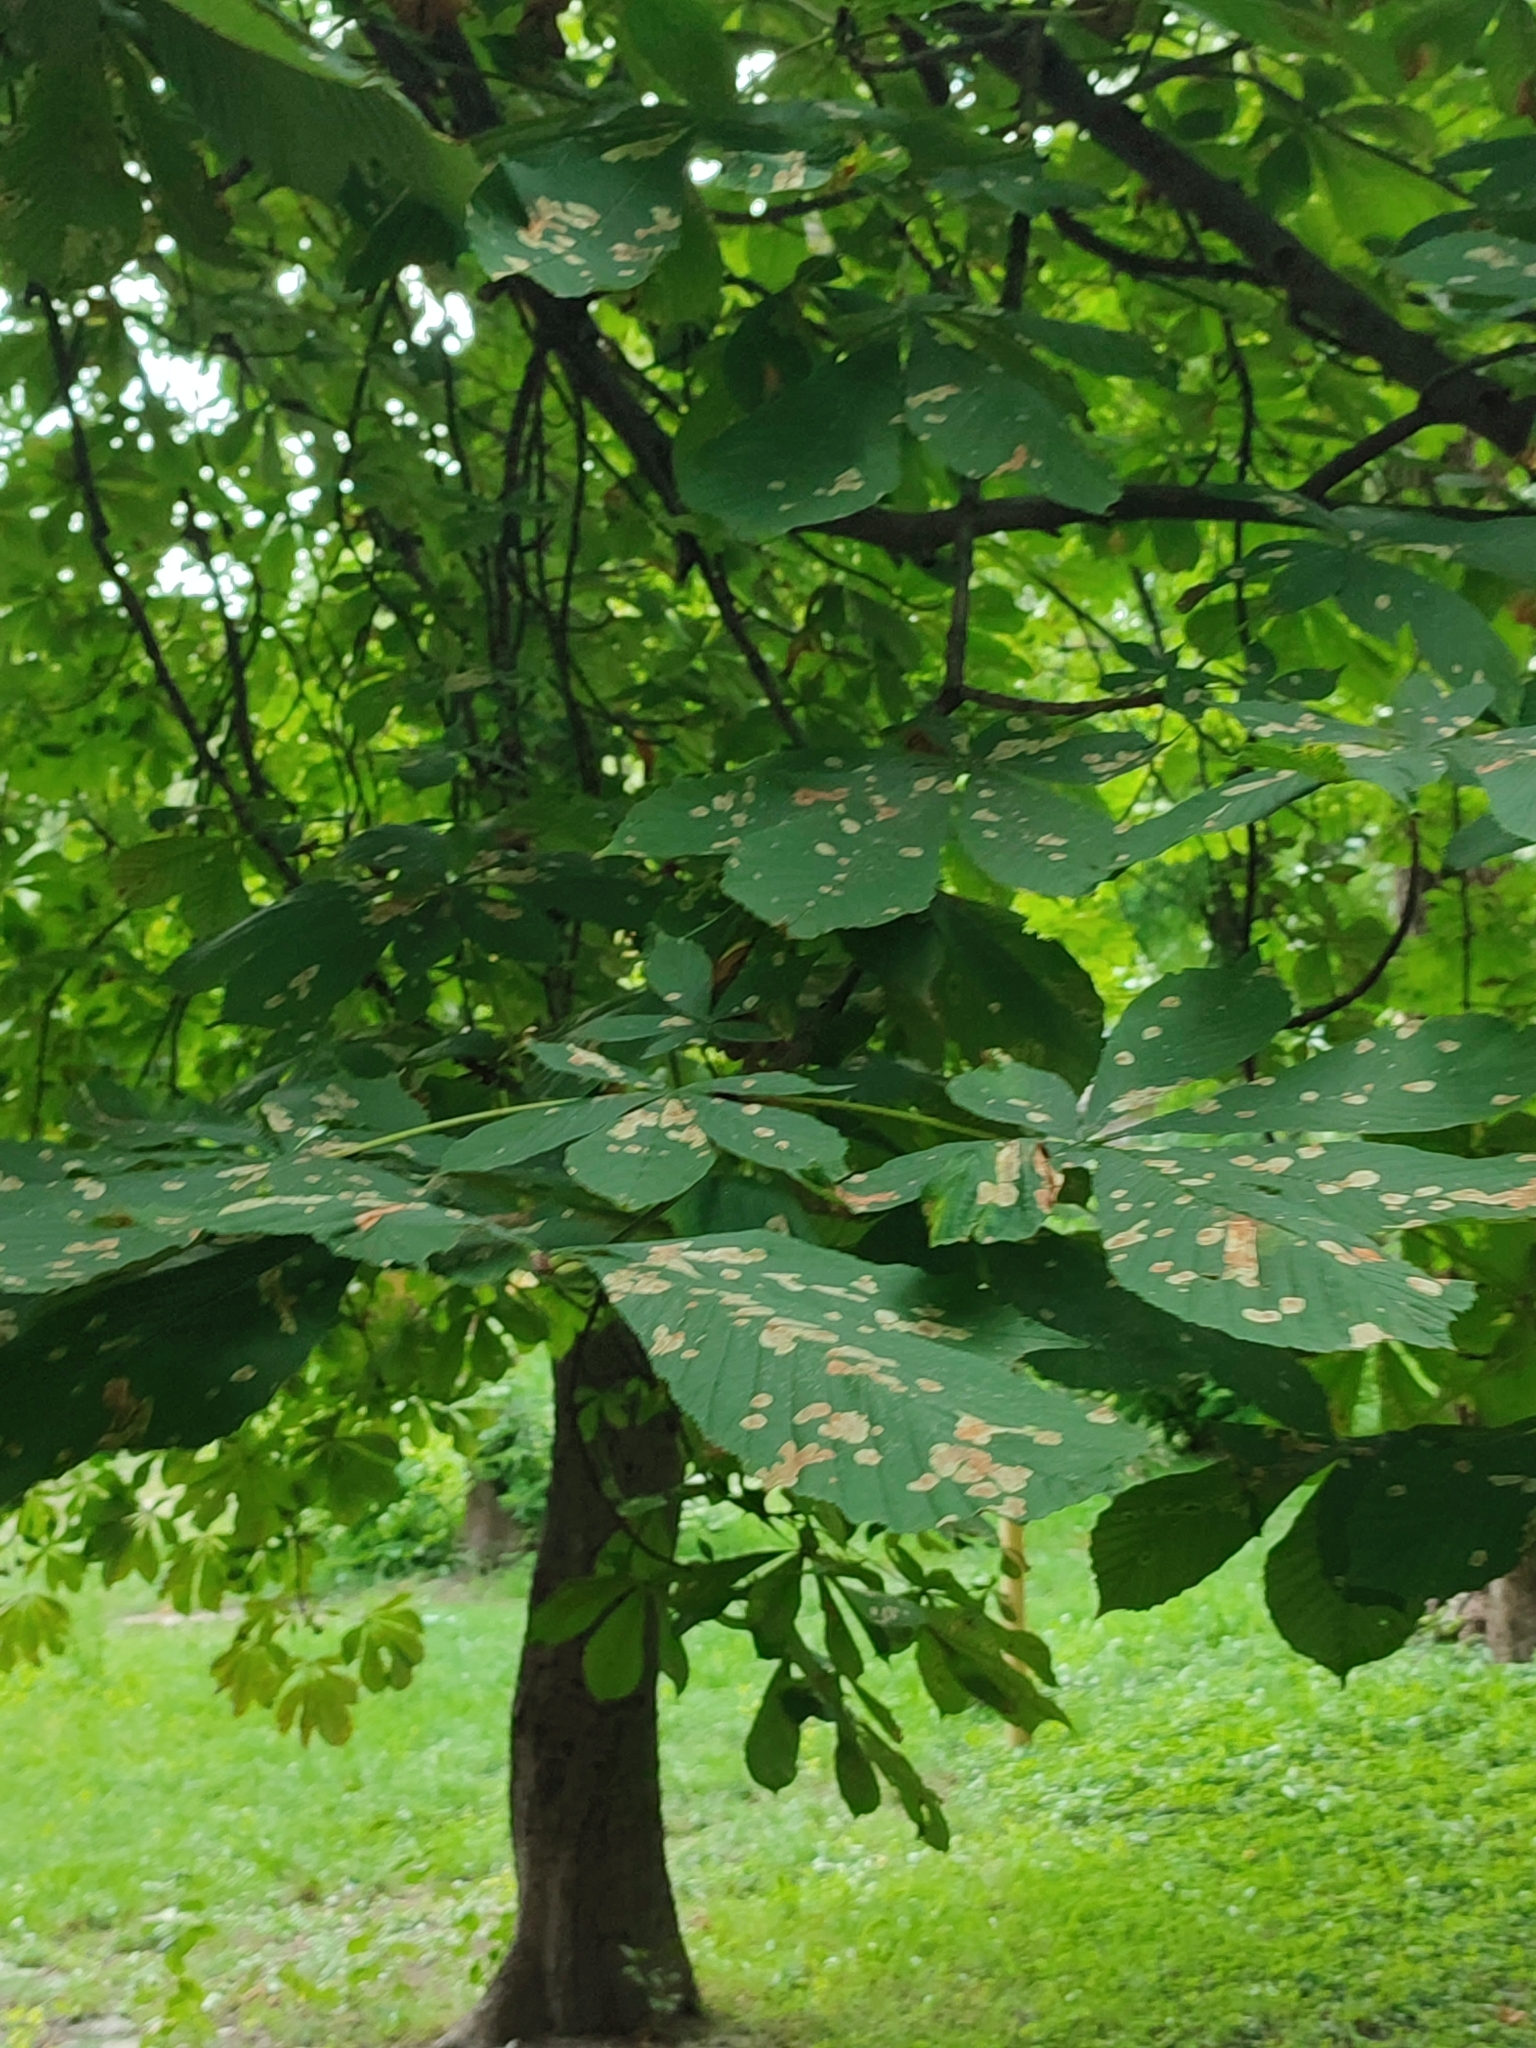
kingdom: Animalia
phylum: Arthropoda
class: Insecta
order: Lepidoptera
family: Gracillariidae
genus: Cameraria
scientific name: Cameraria ohridella
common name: Horse-chestnut leaf-miner
